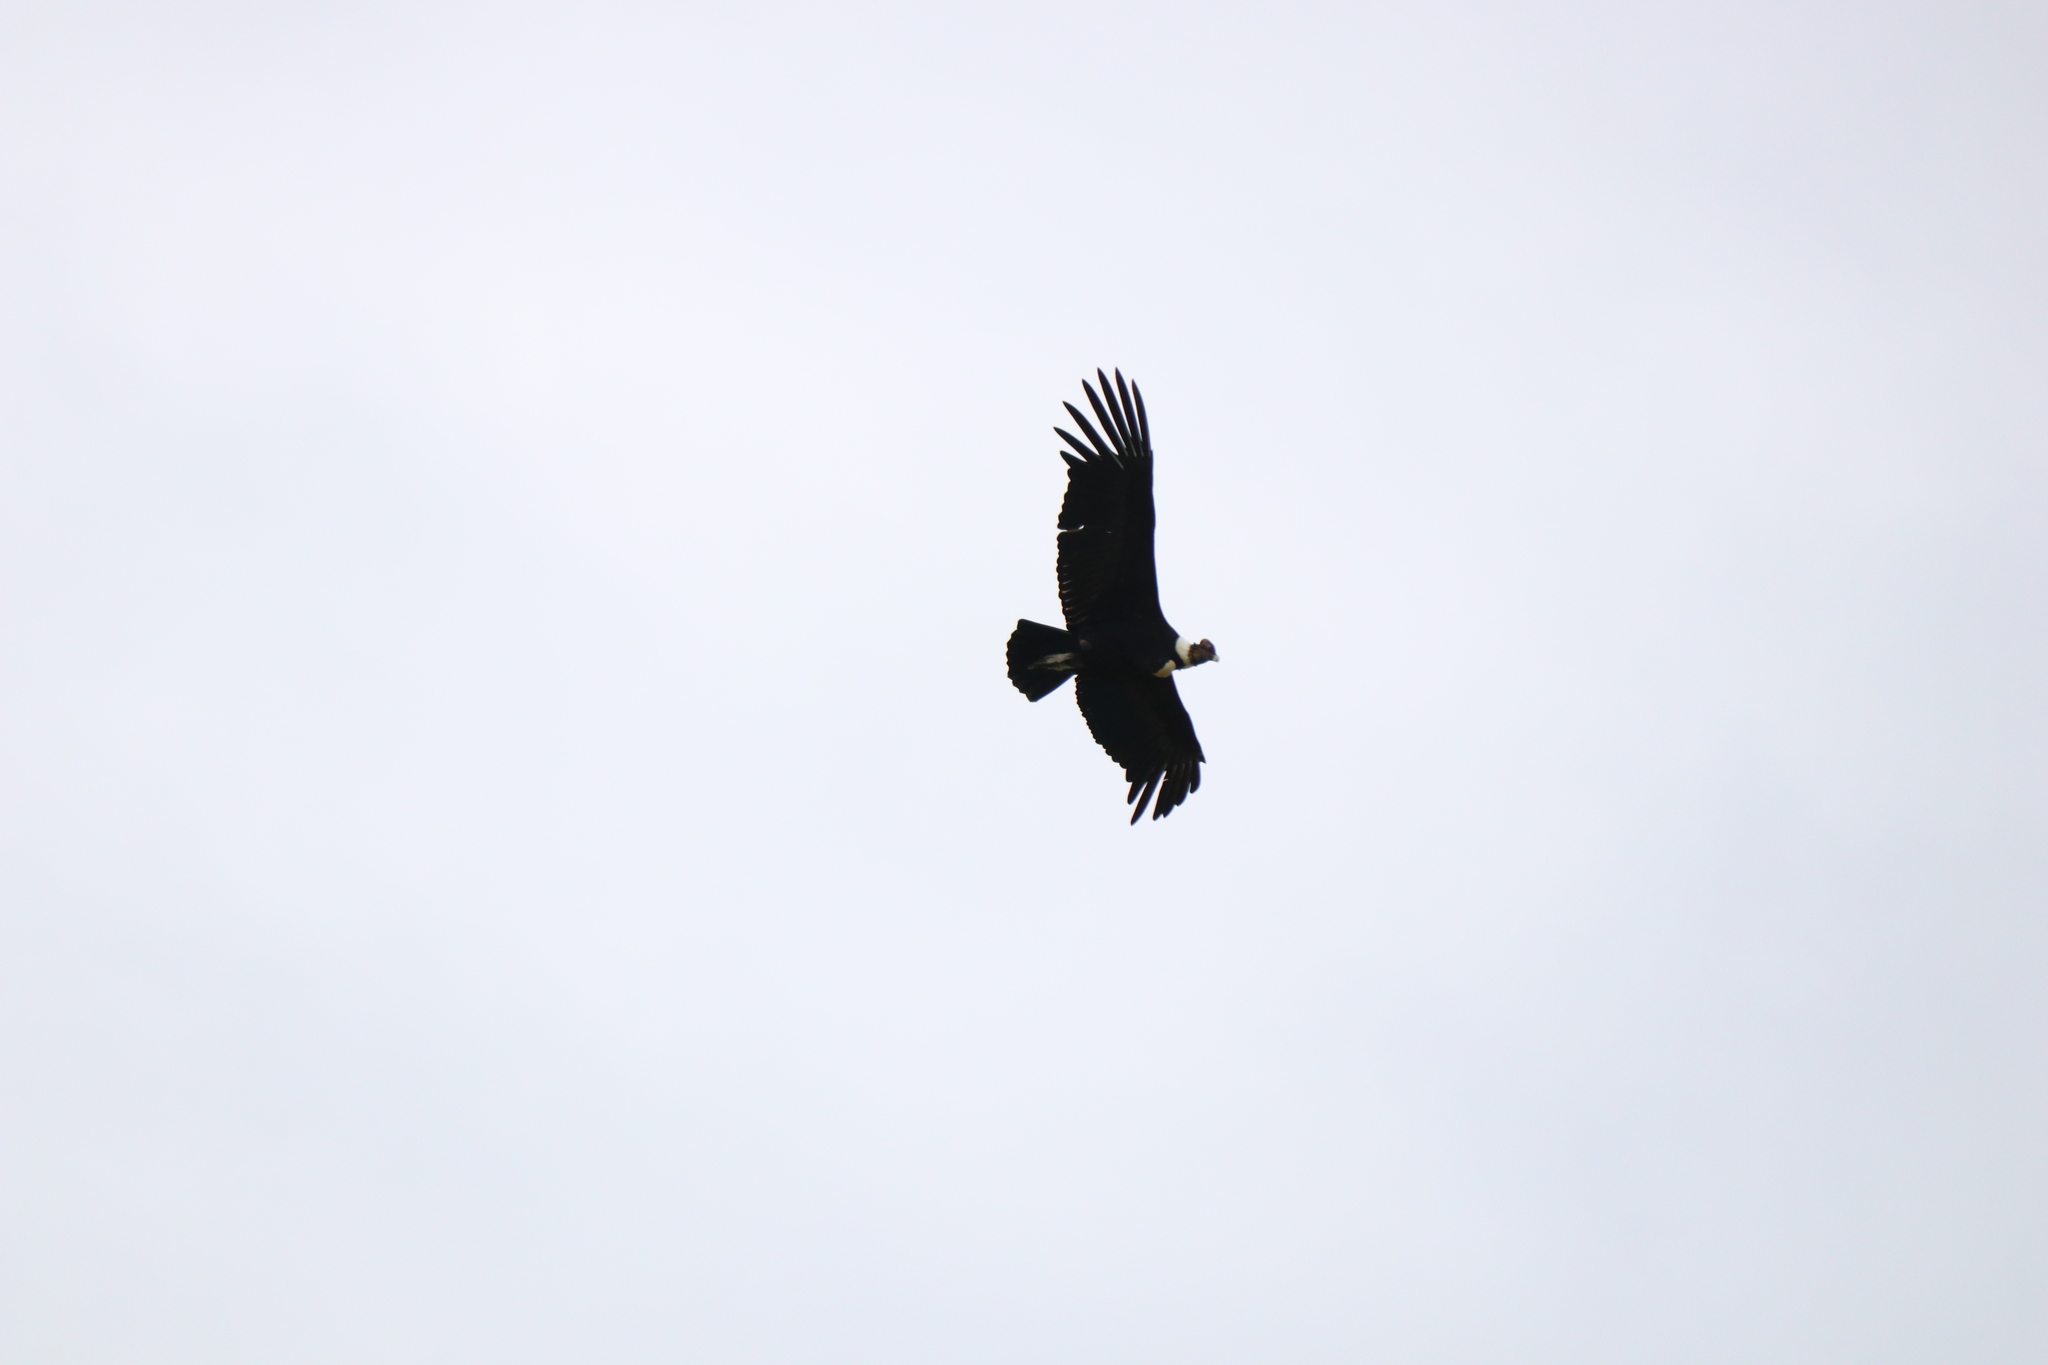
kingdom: Animalia
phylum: Chordata
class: Aves
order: Accipitriformes
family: Cathartidae
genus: Vultur
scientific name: Vultur gryphus
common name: Andean condor
